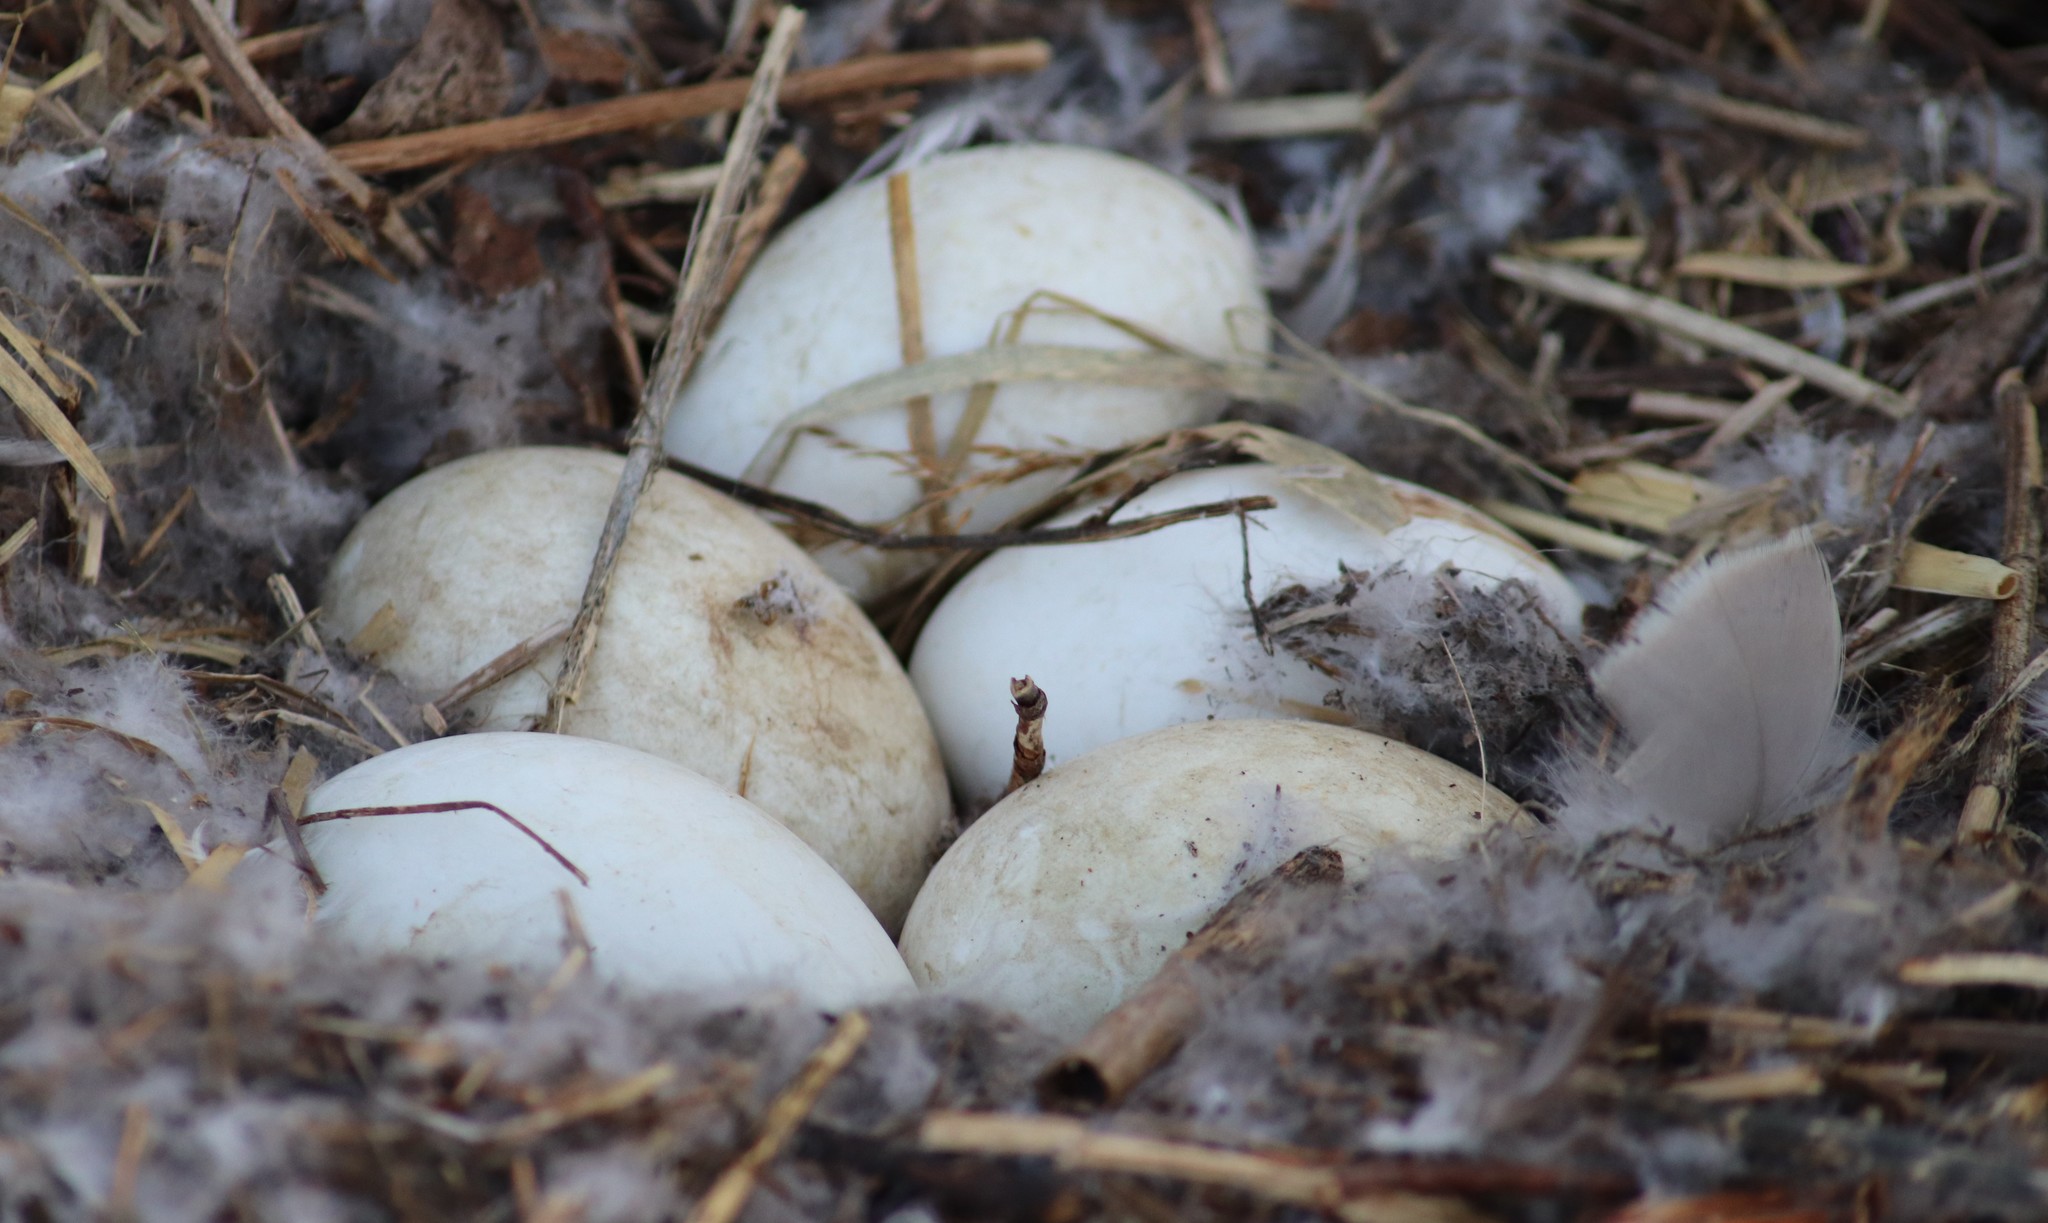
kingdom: Animalia
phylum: Chordata
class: Aves
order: Anseriformes
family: Anatidae
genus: Branta
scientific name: Branta canadensis
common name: Canada goose
